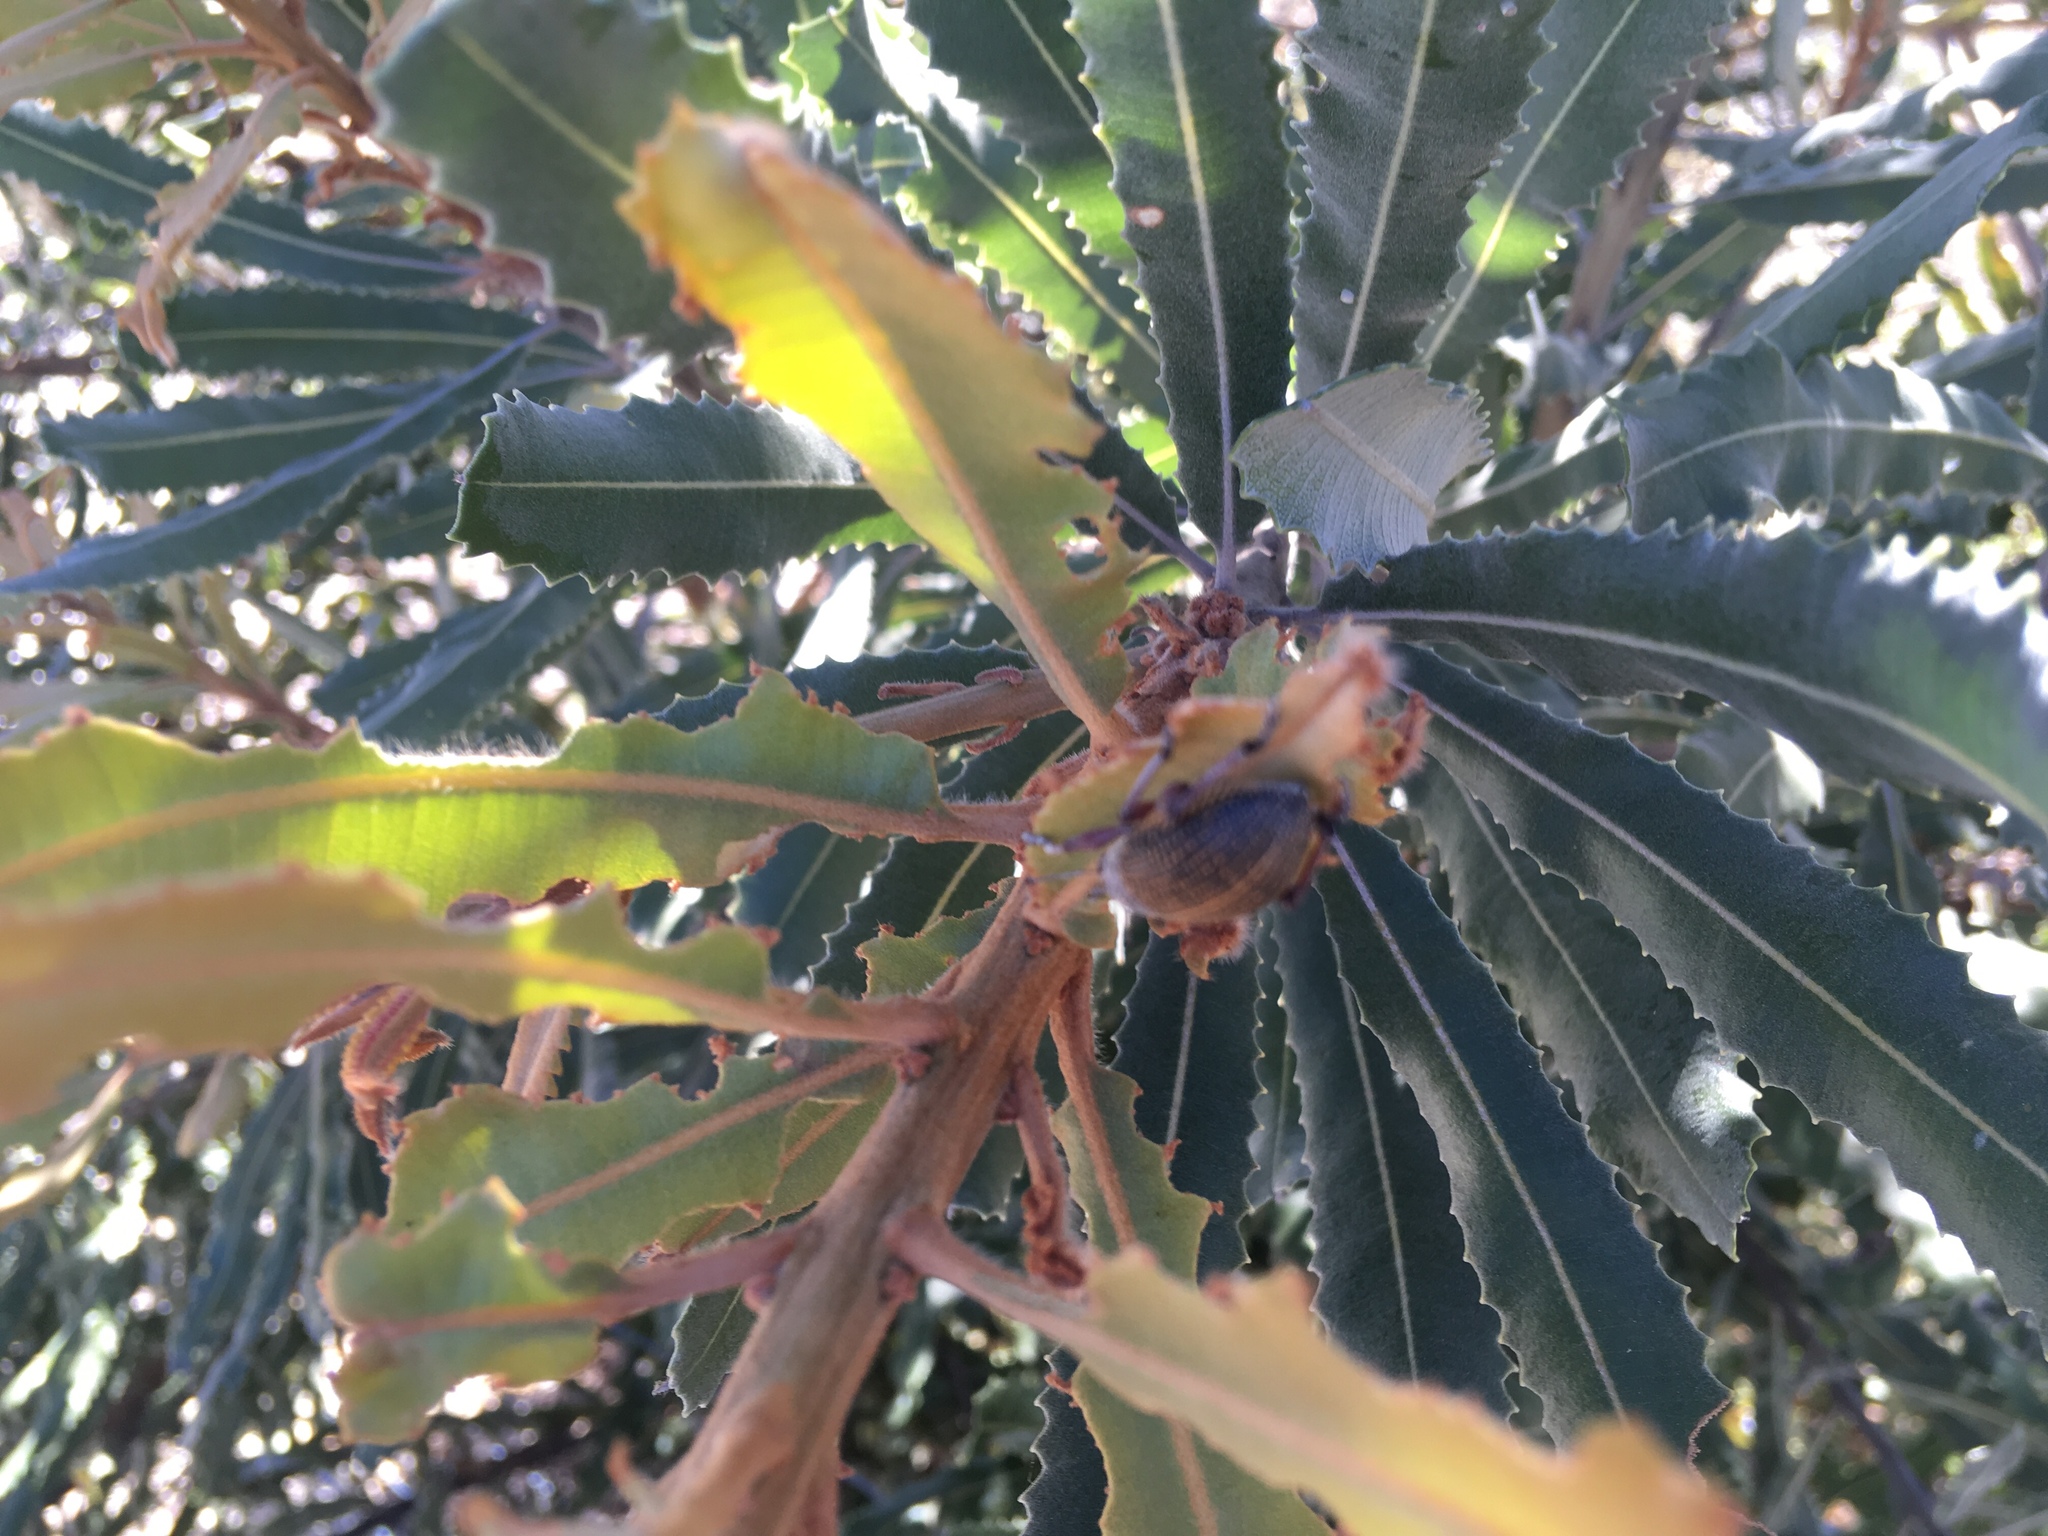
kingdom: Animalia
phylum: Arthropoda
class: Insecta
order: Coleoptera
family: Curculionidae
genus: Catasarcus
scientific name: Catasarcus asphaltinus
